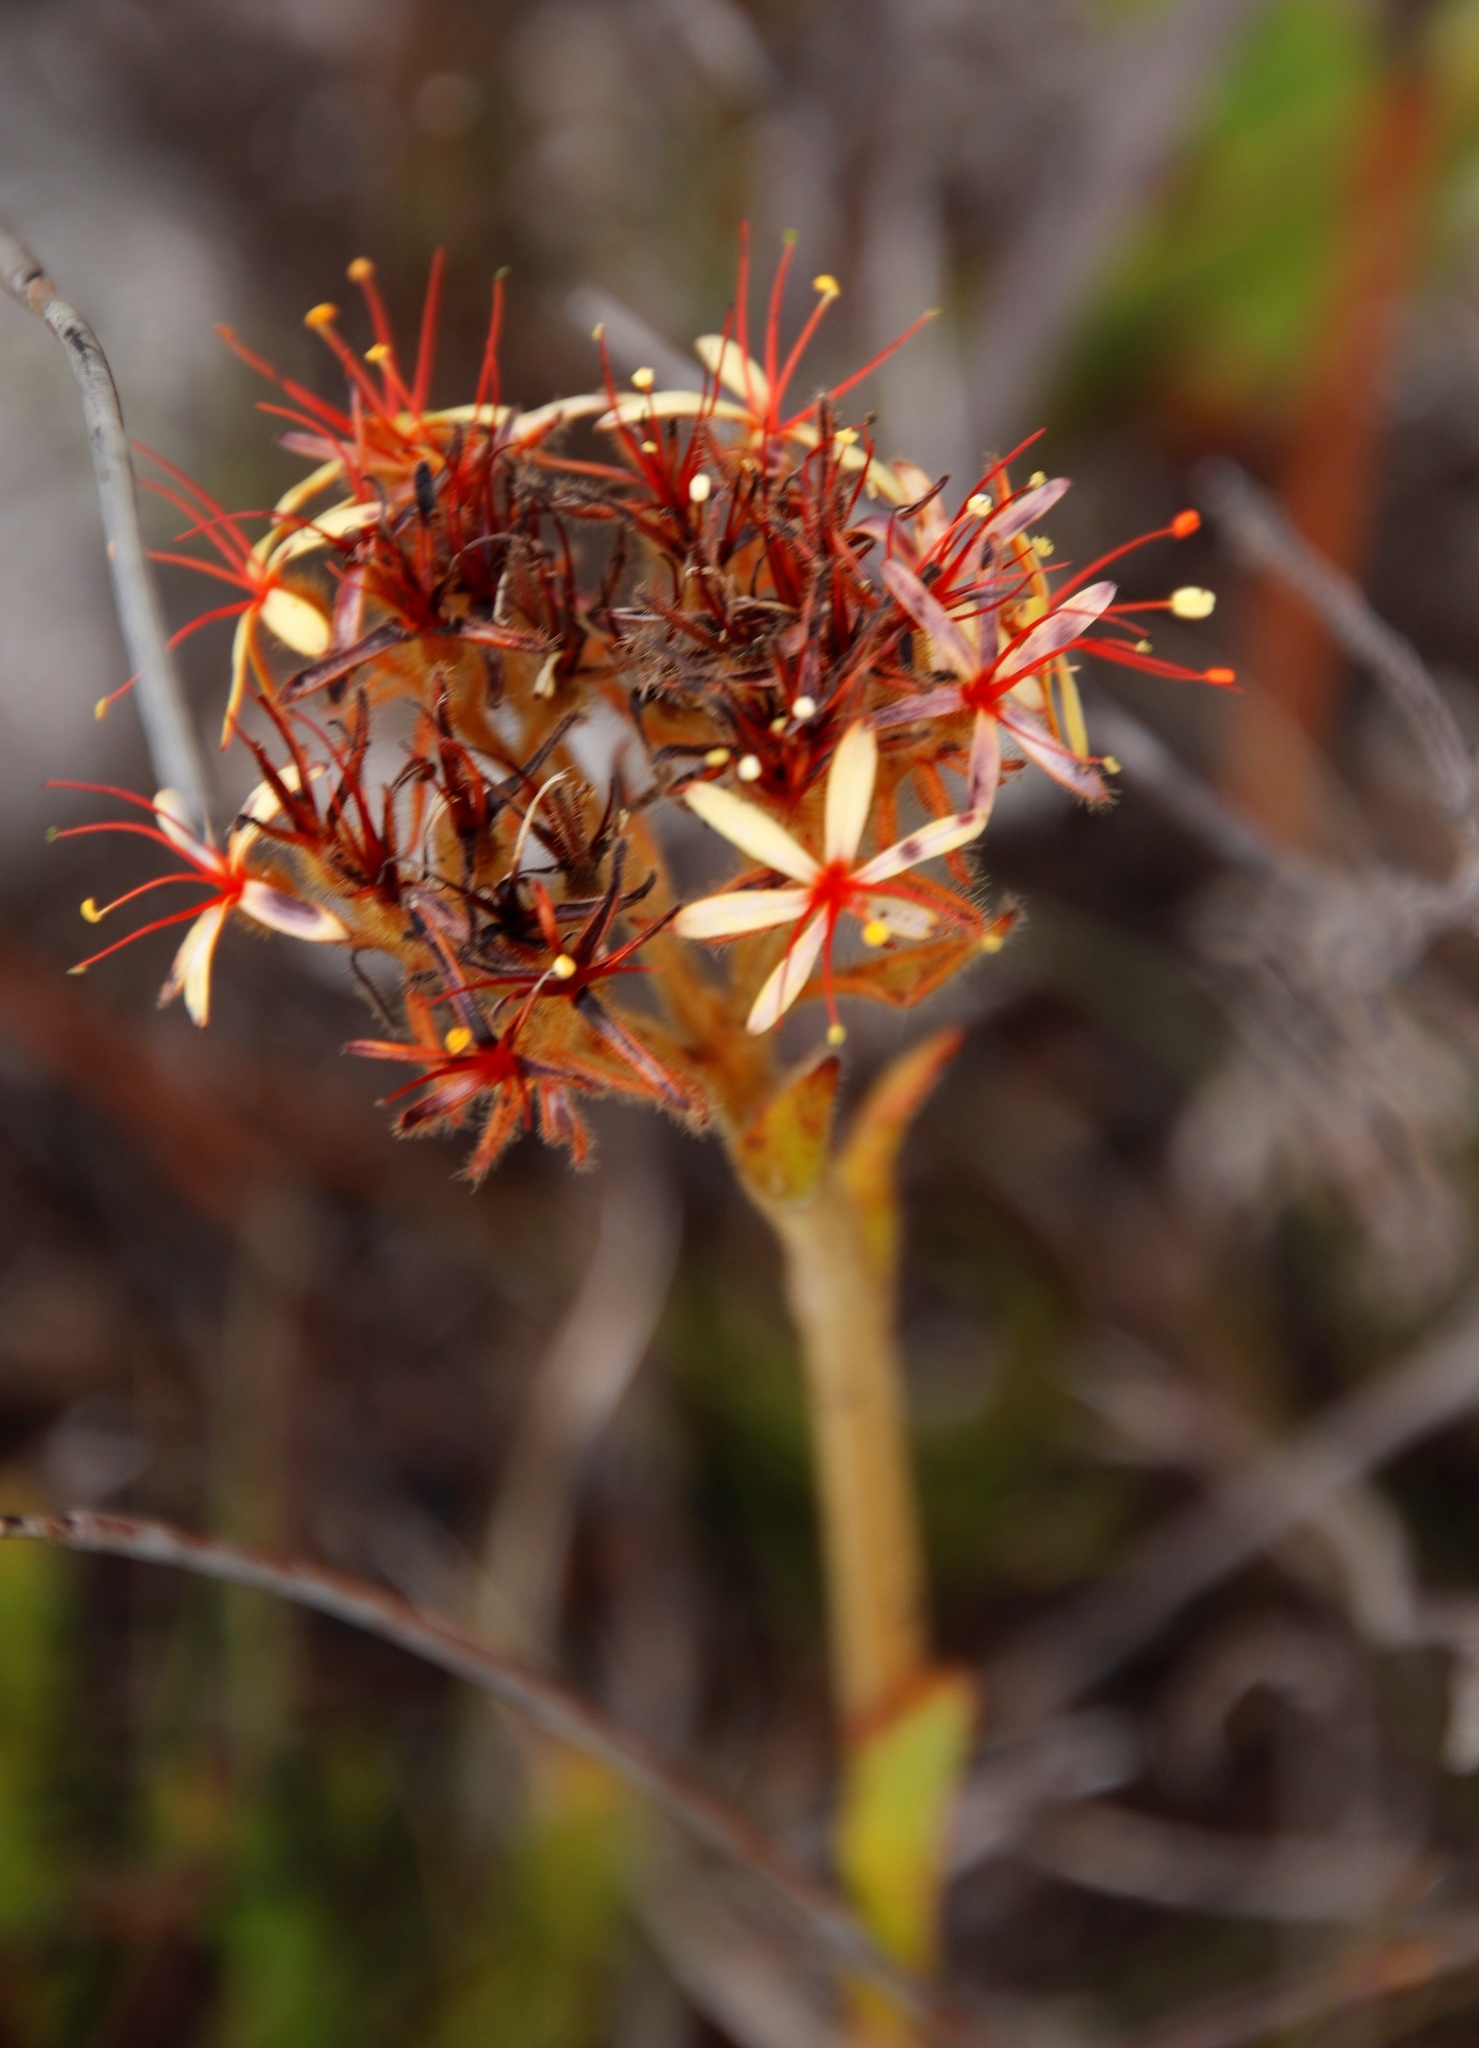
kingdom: Plantae
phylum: Tracheophyta
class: Liliopsida
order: Commelinales
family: Haemodoraceae
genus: Dilatris
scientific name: Dilatris viscosa
